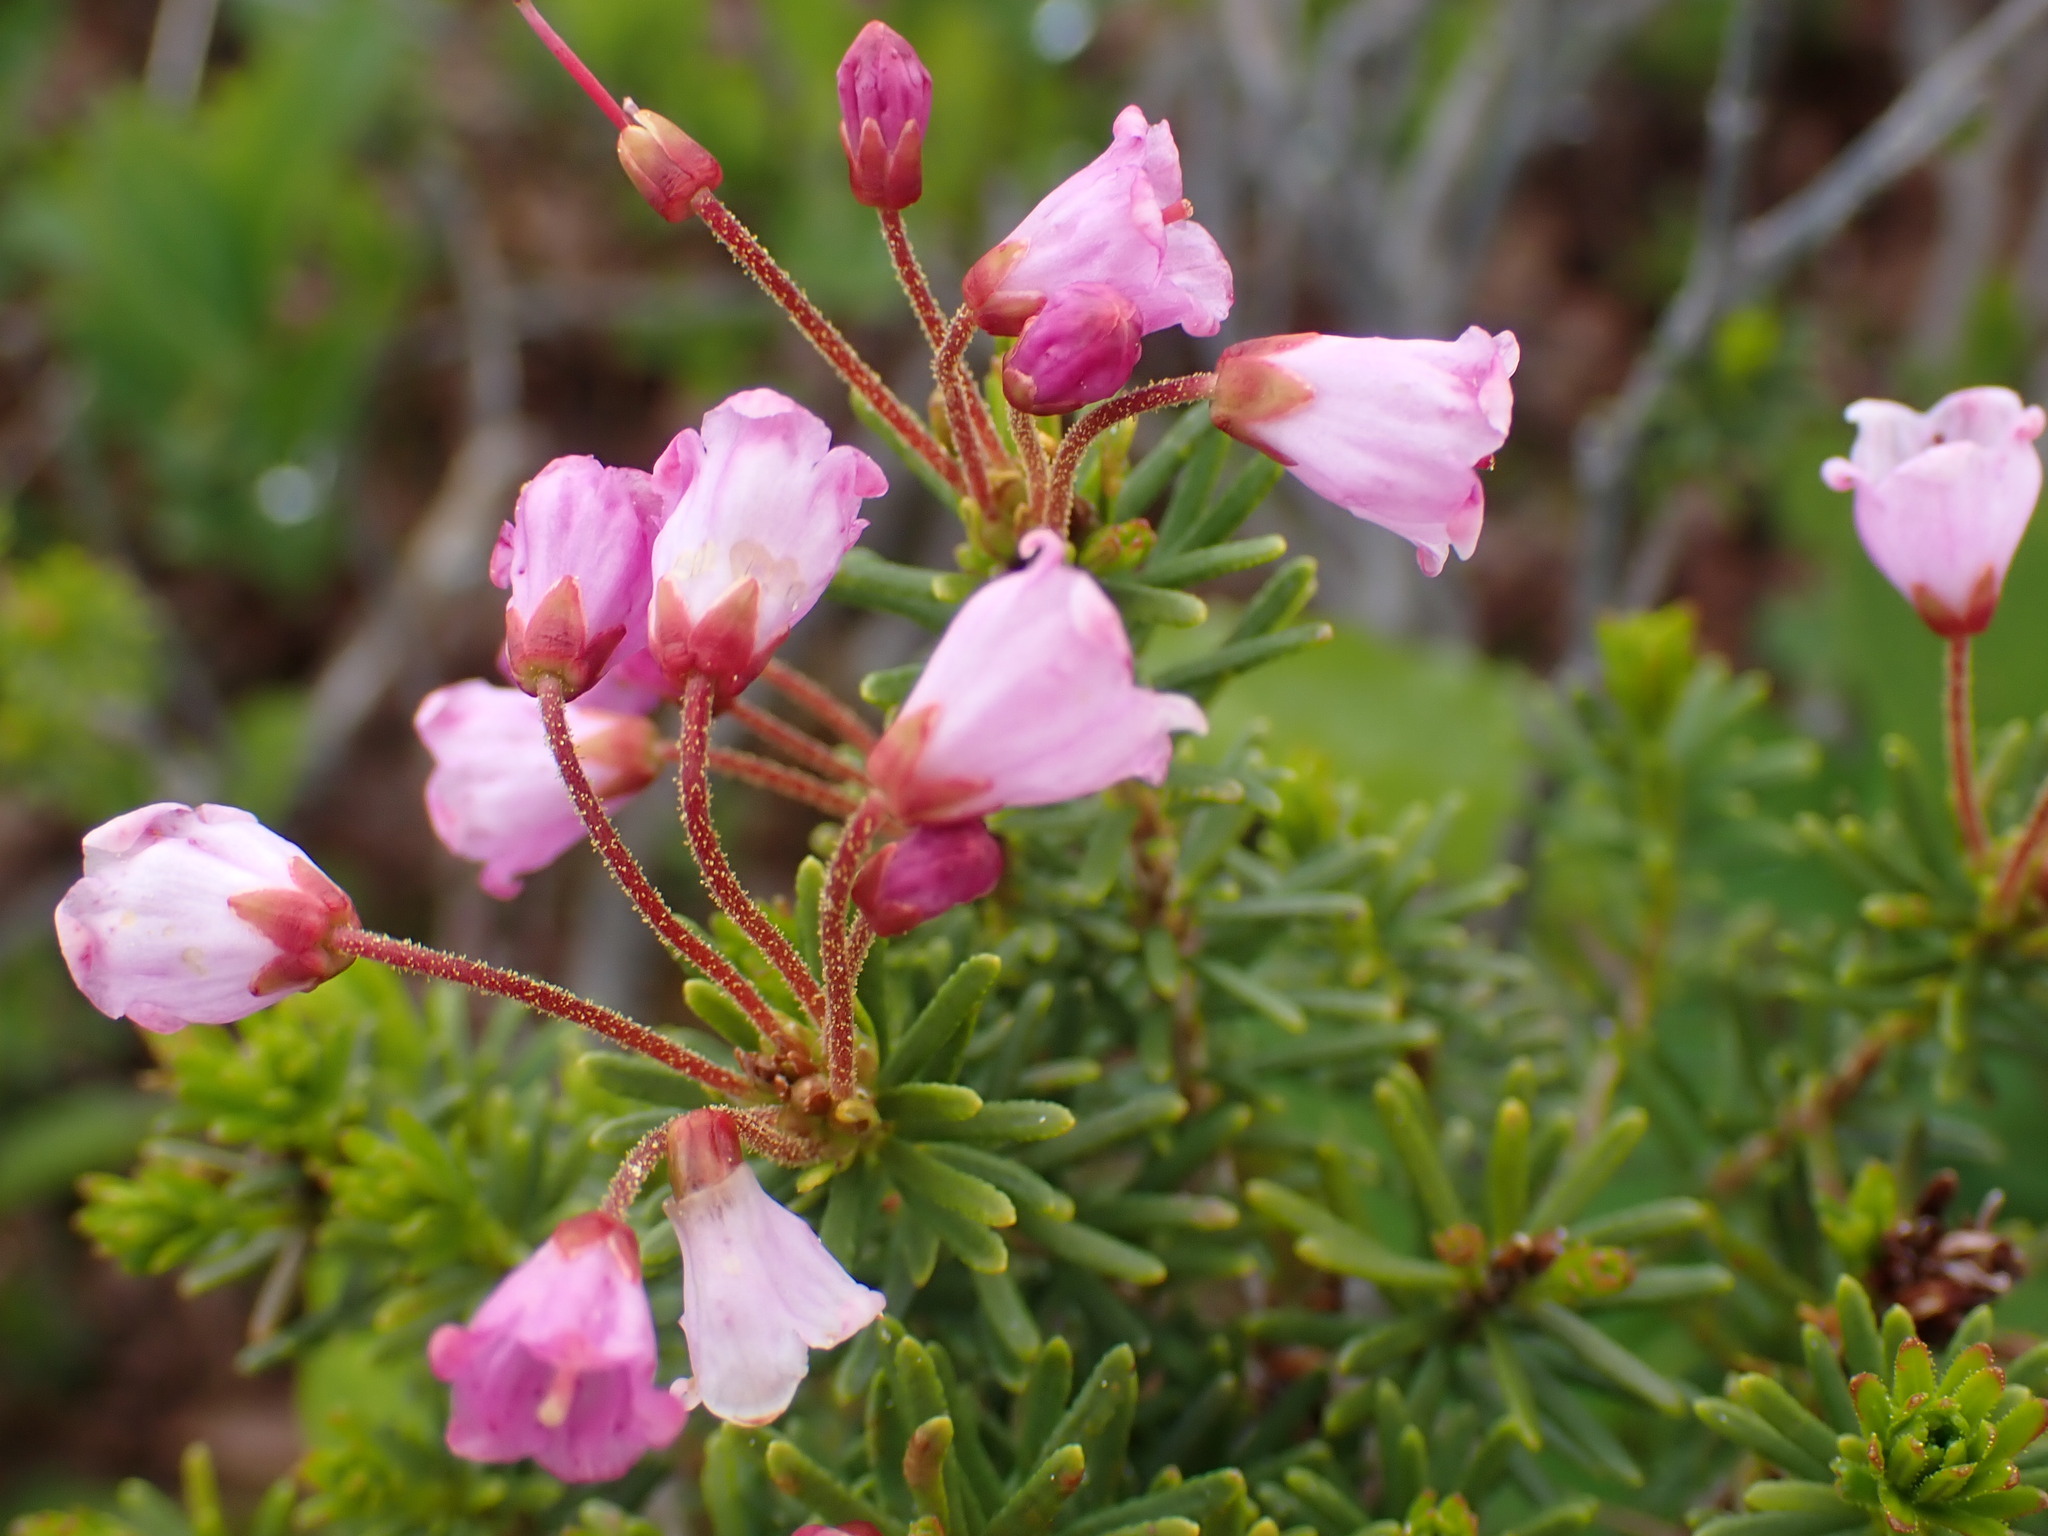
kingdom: Plantae
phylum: Tracheophyta
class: Magnoliopsida
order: Ericales
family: Ericaceae
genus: Phyllodoce
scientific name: Phyllodoce empetriformis
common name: Pink mountain heather
